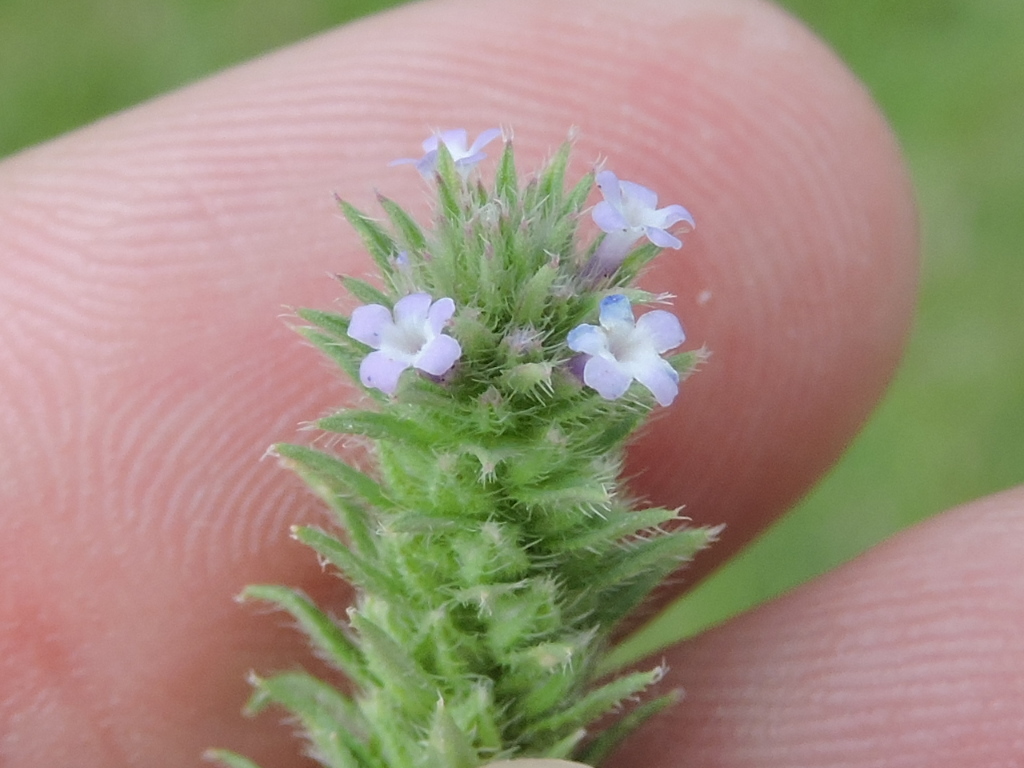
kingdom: Plantae
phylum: Tracheophyta
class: Magnoliopsida
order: Lamiales
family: Verbenaceae
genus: Verbena
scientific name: Verbena bracteata
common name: Bracted vervain
